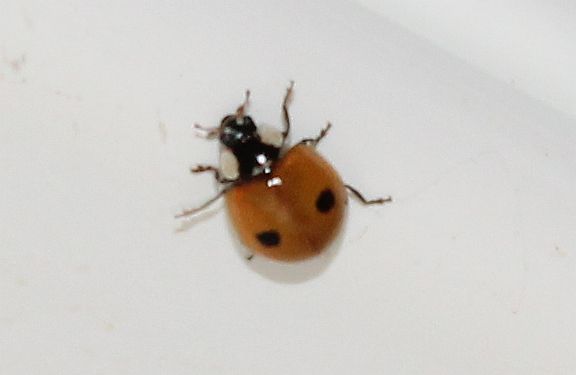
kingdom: Animalia
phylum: Arthropoda
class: Insecta
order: Coleoptera
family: Coccinellidae
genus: Adalia
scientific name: Adalia bipunctata
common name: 2-spot ladybird
